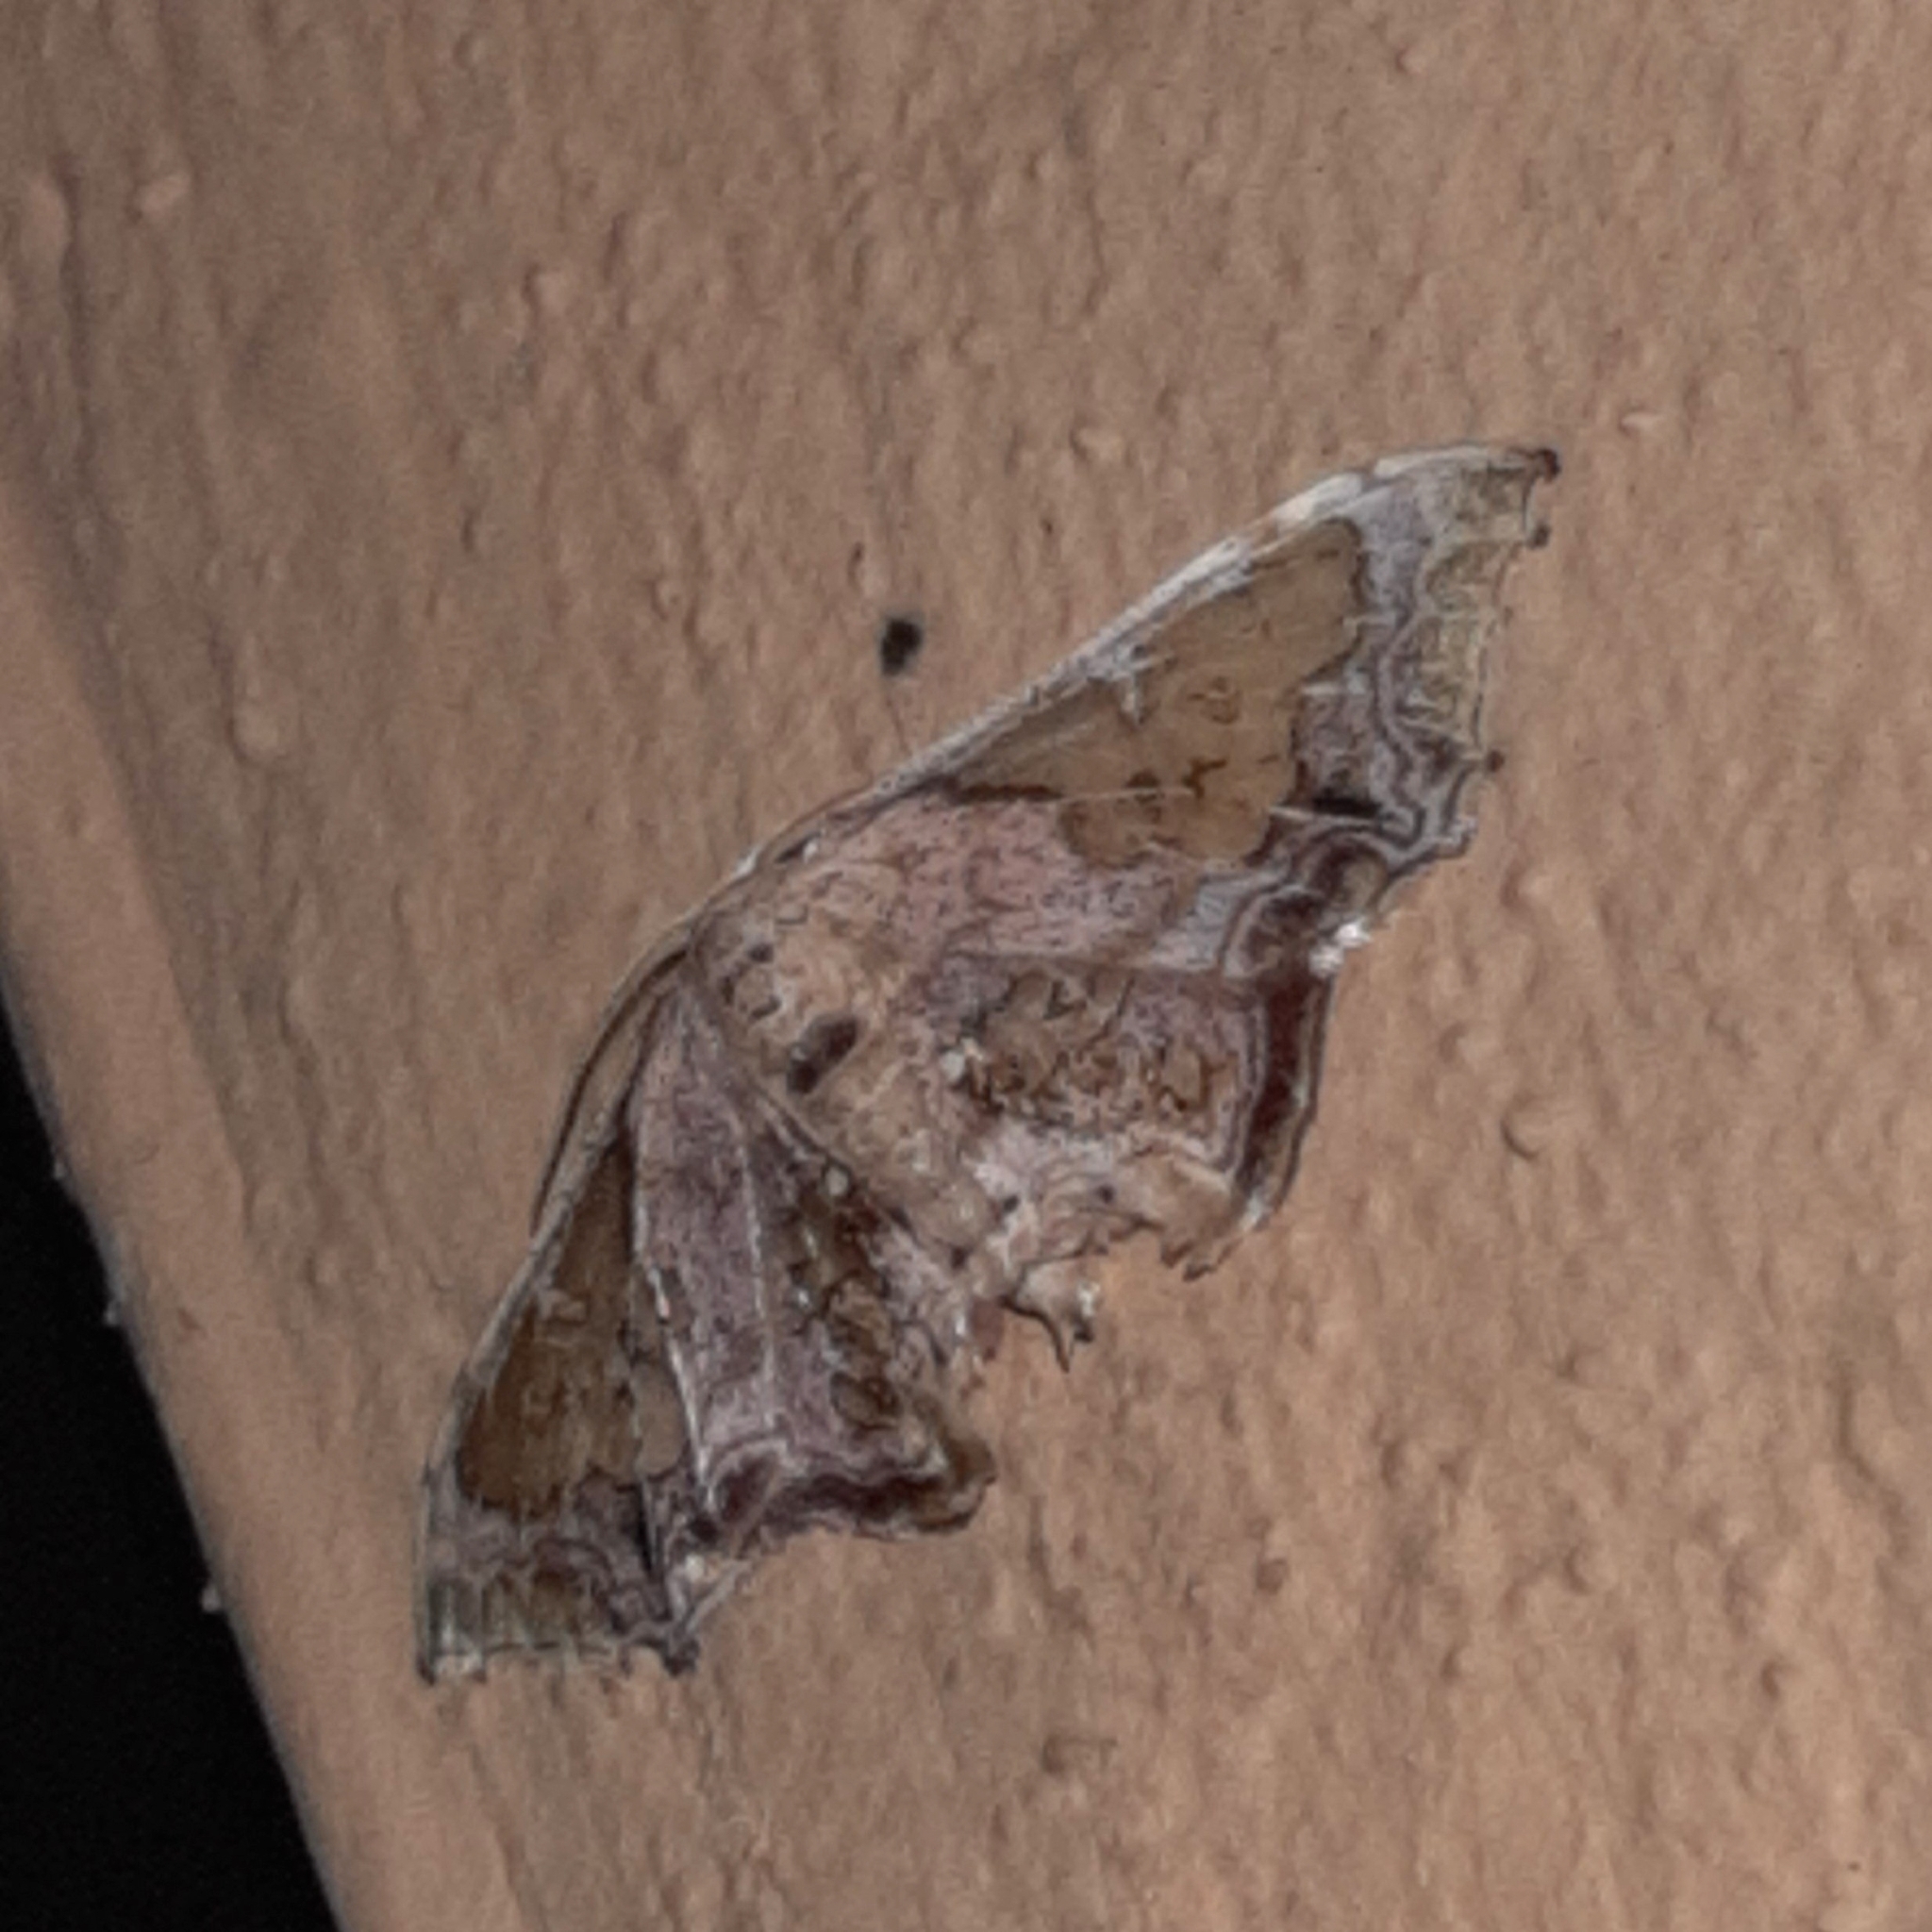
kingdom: Animalia
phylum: Arthropoda
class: Insecta
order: Lepidoptera
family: Geometridae
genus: Pseudasellodes
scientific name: Pseudasellodes fenestraria
